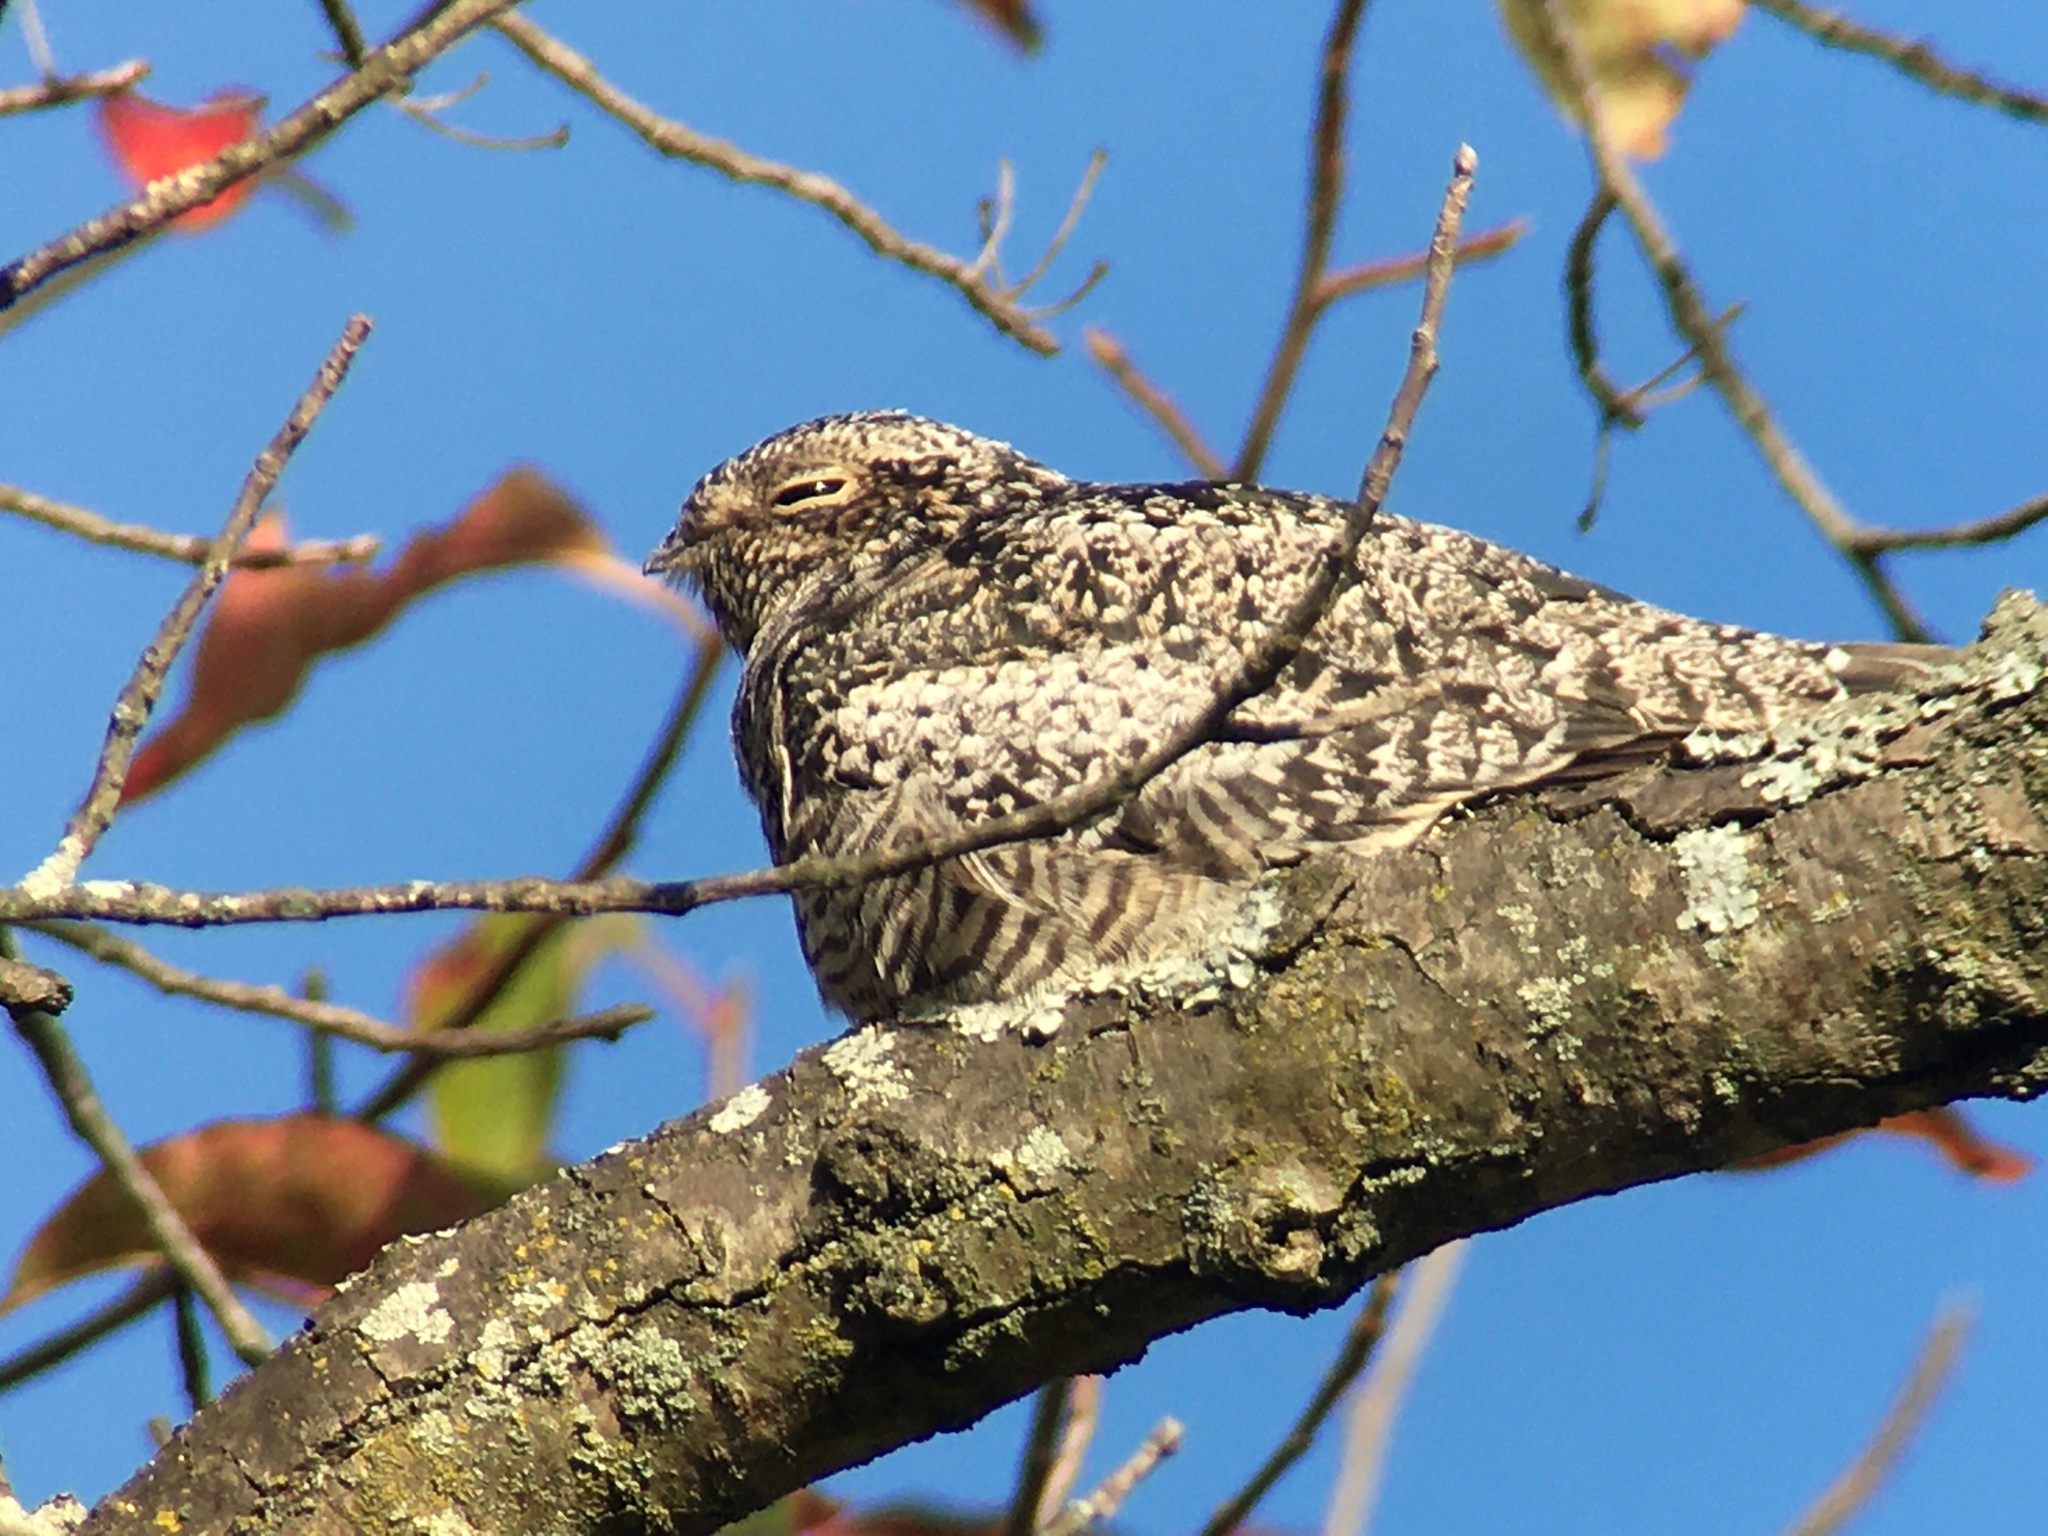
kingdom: Animalia
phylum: Chordata
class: Aves
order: Caprimulgiformes
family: Caprimulgidae
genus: Chordeiles
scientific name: Chordeiles minor
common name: Common nighthawk
